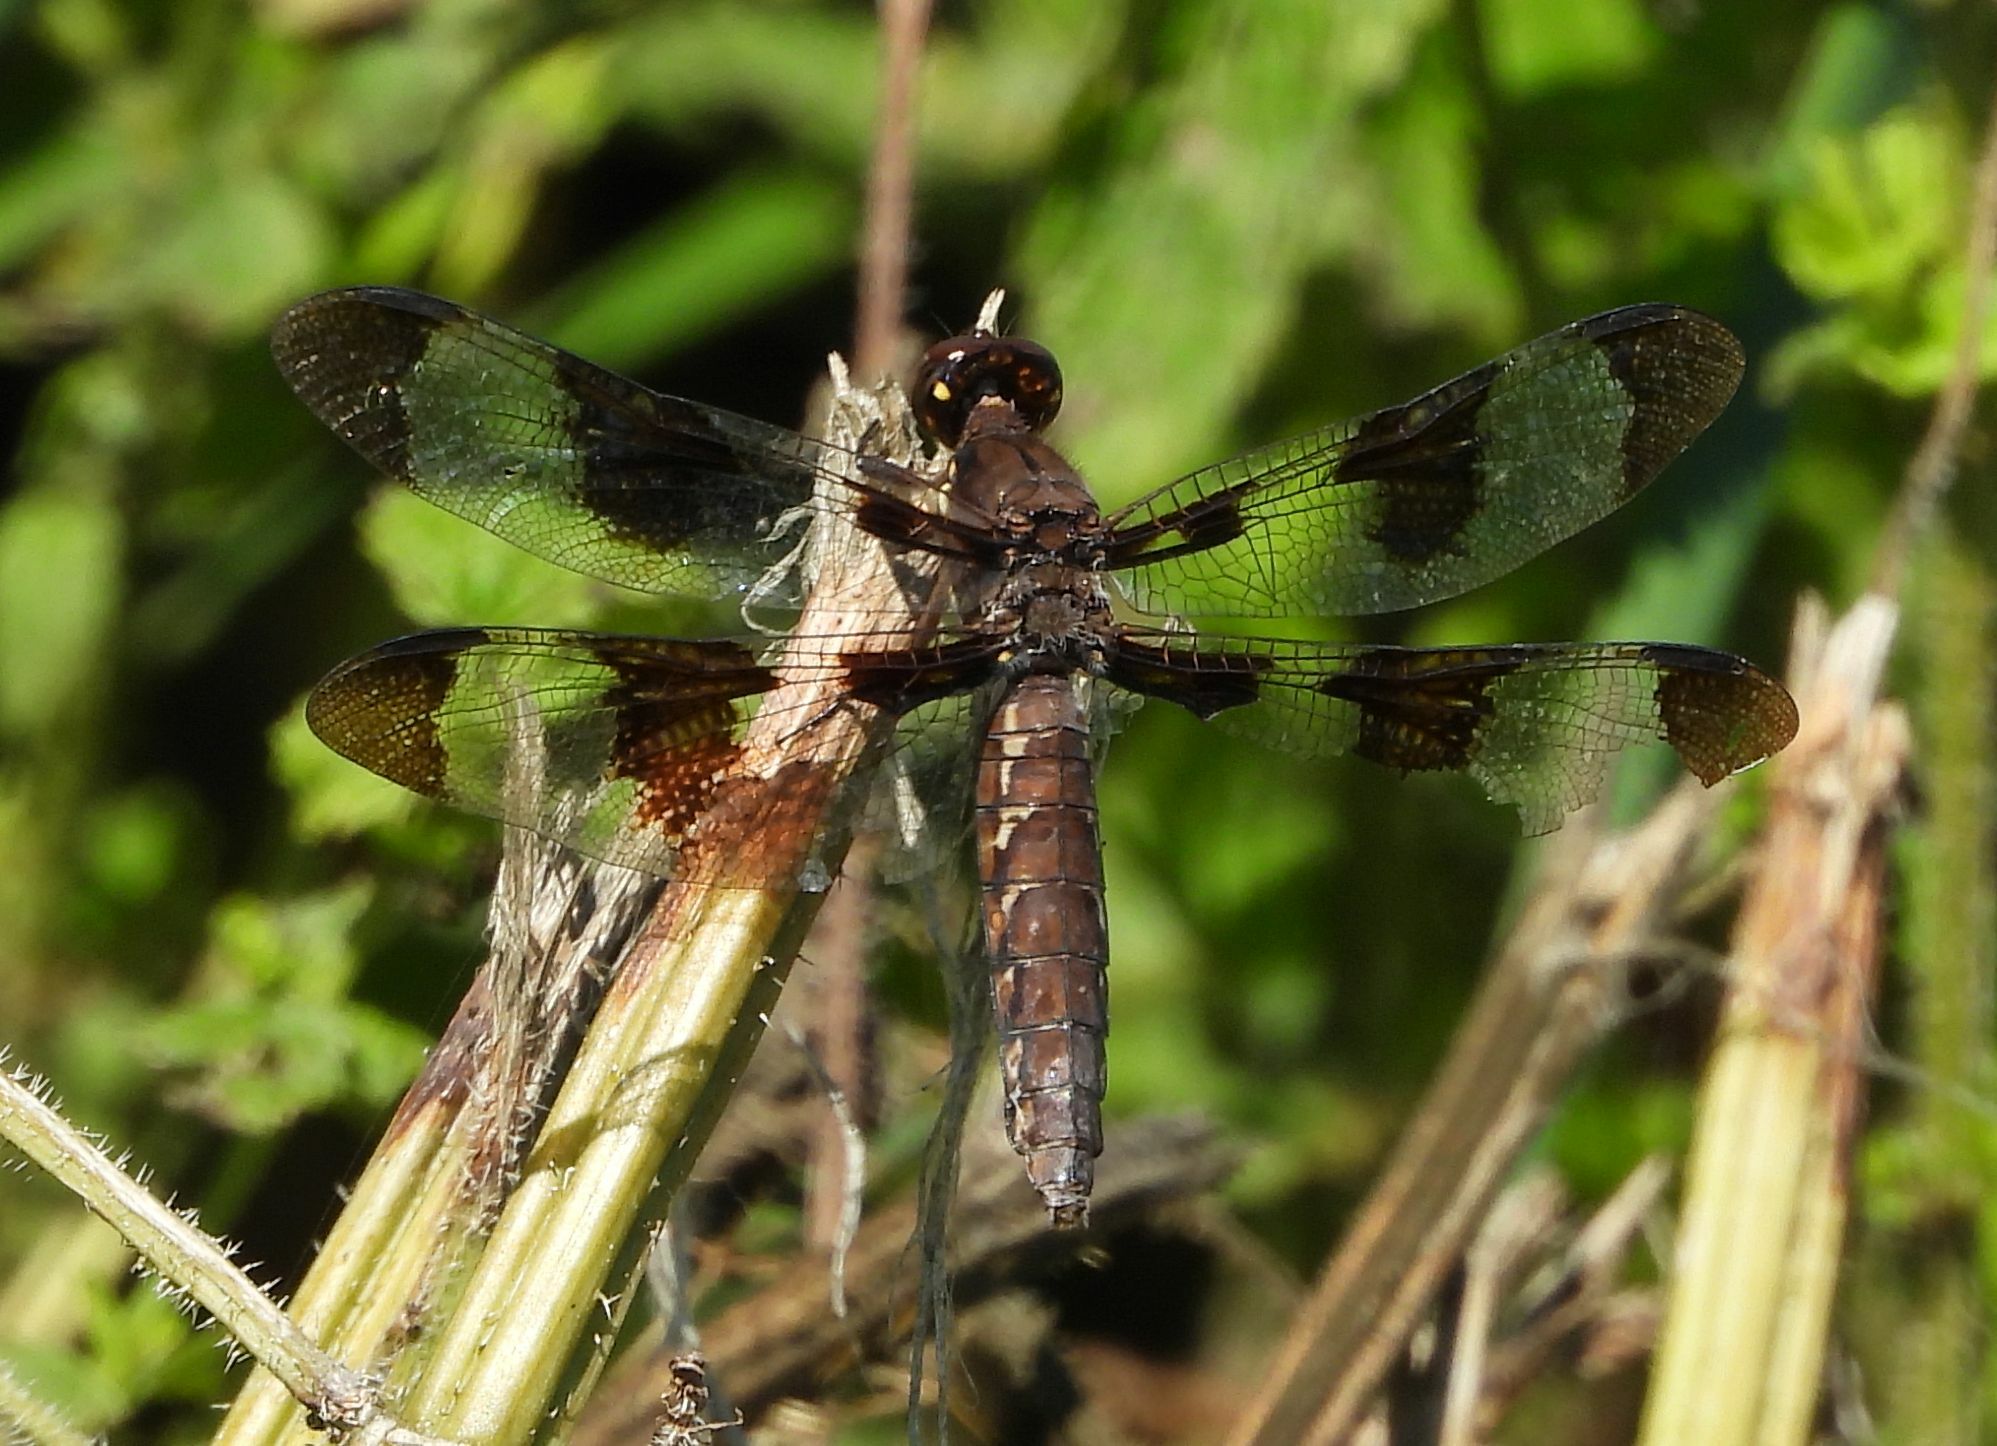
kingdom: Animalia
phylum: Arthropoda
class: Insecta
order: Odonata
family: Libellulidae
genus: Plathemis
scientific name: Plathemis lydia
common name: Common whitetail
